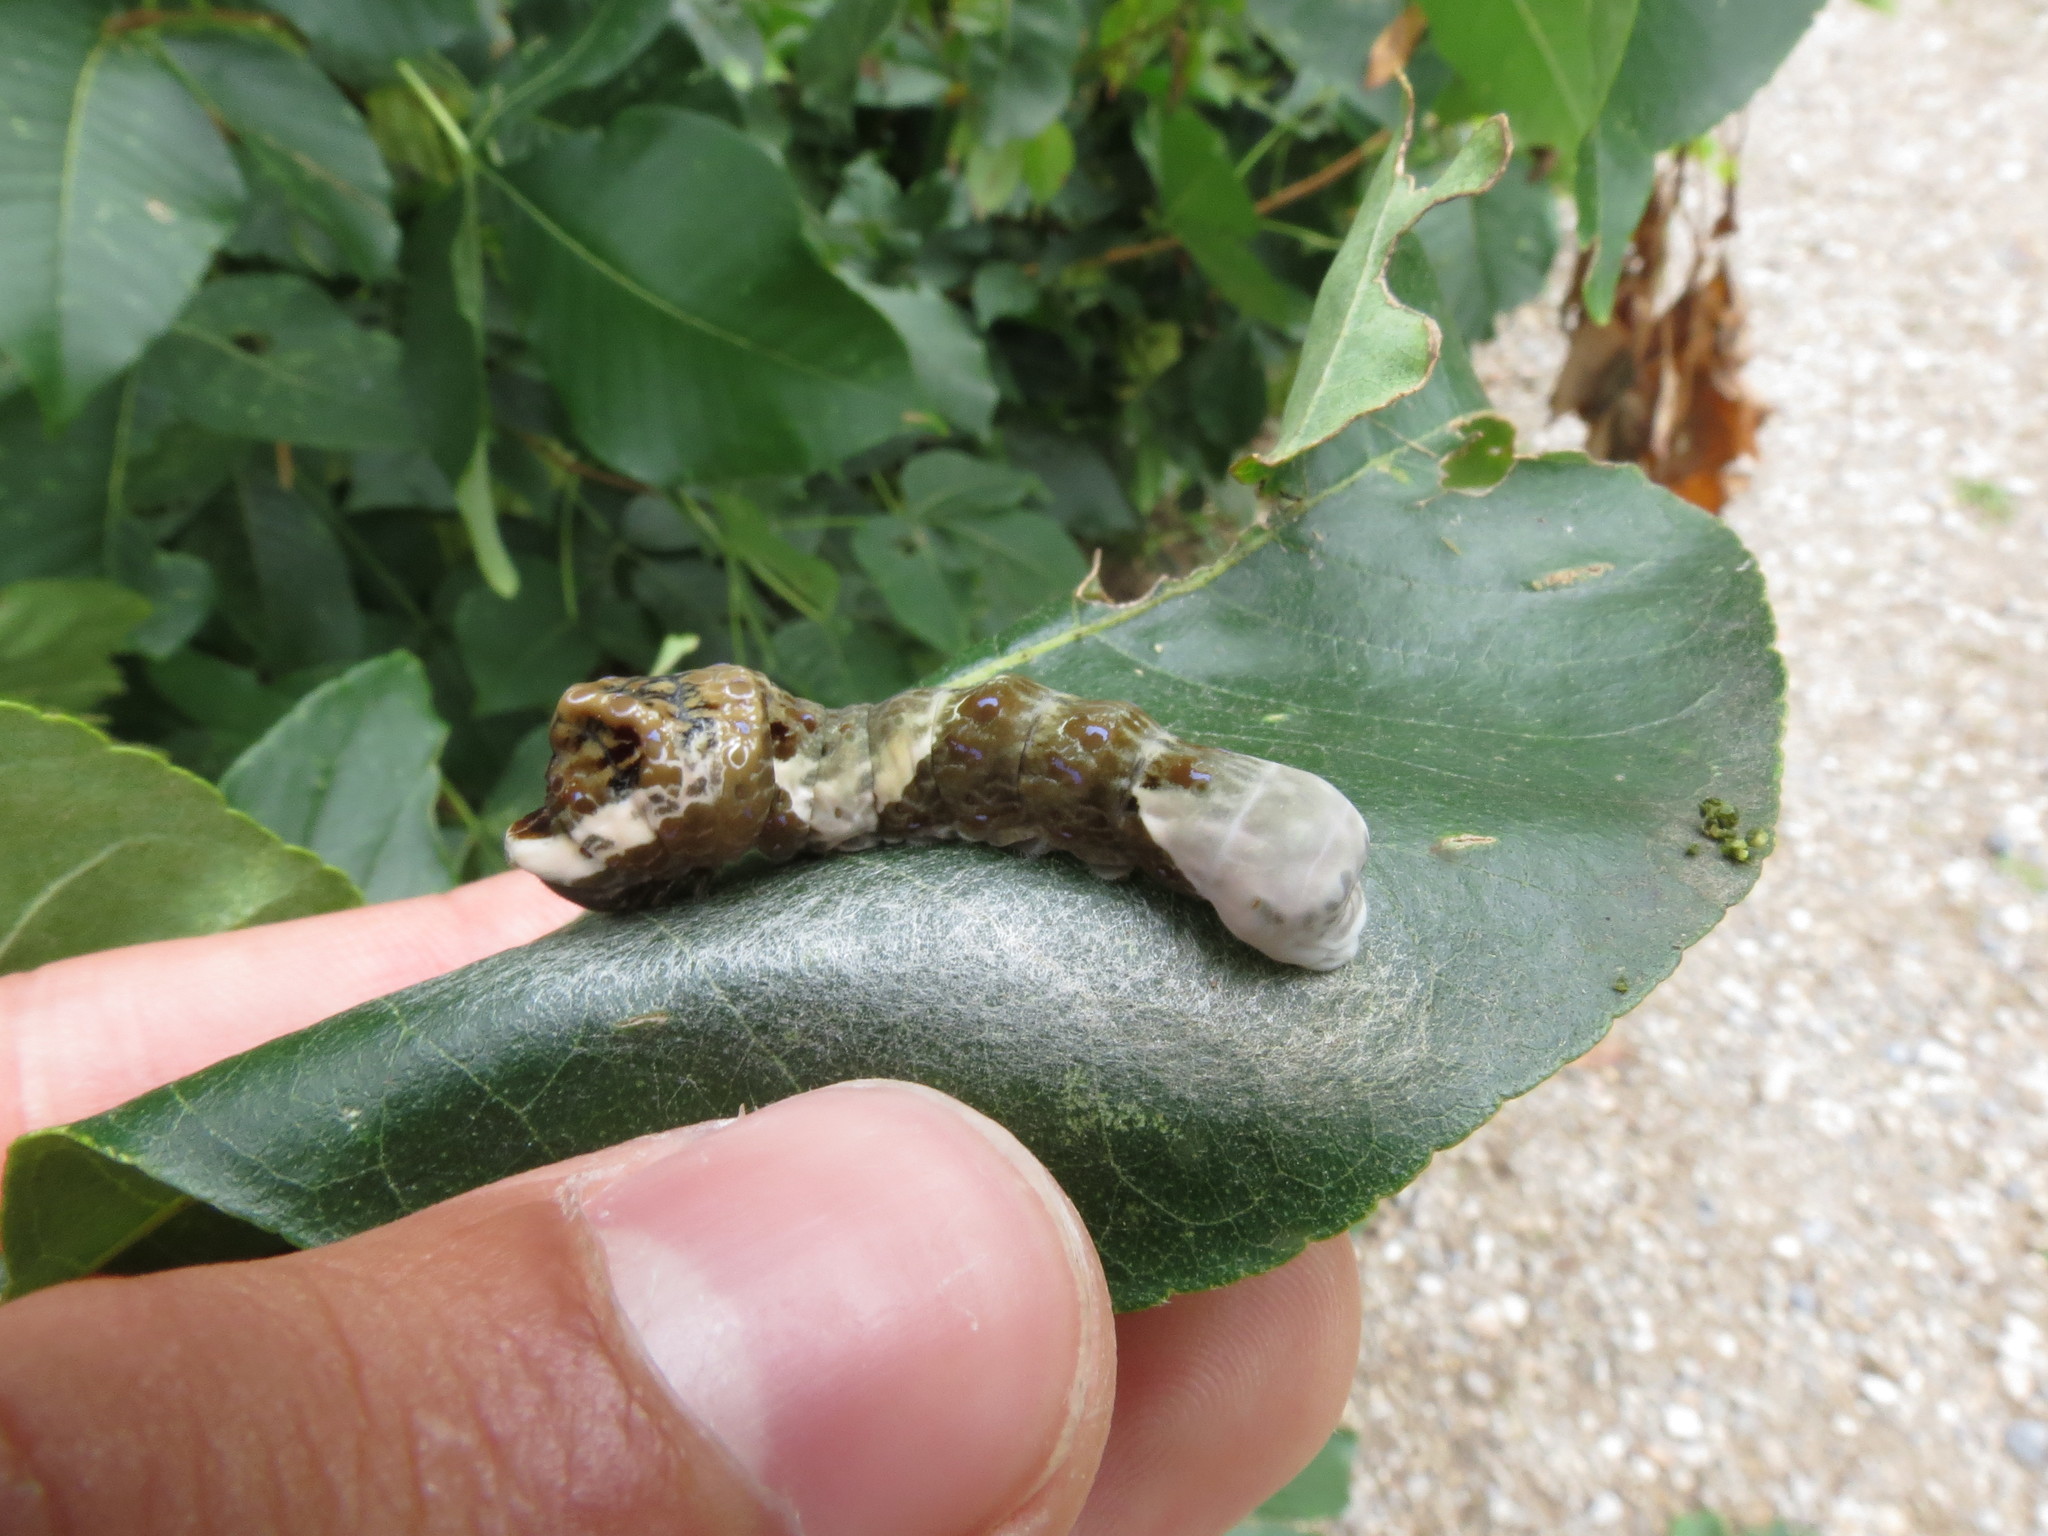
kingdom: Animalia
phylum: Arthropoda
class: Insecta
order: Lepidoptera
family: Papilionidae
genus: Papilio
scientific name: Papilio cresphontes
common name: Giant swallowtail
